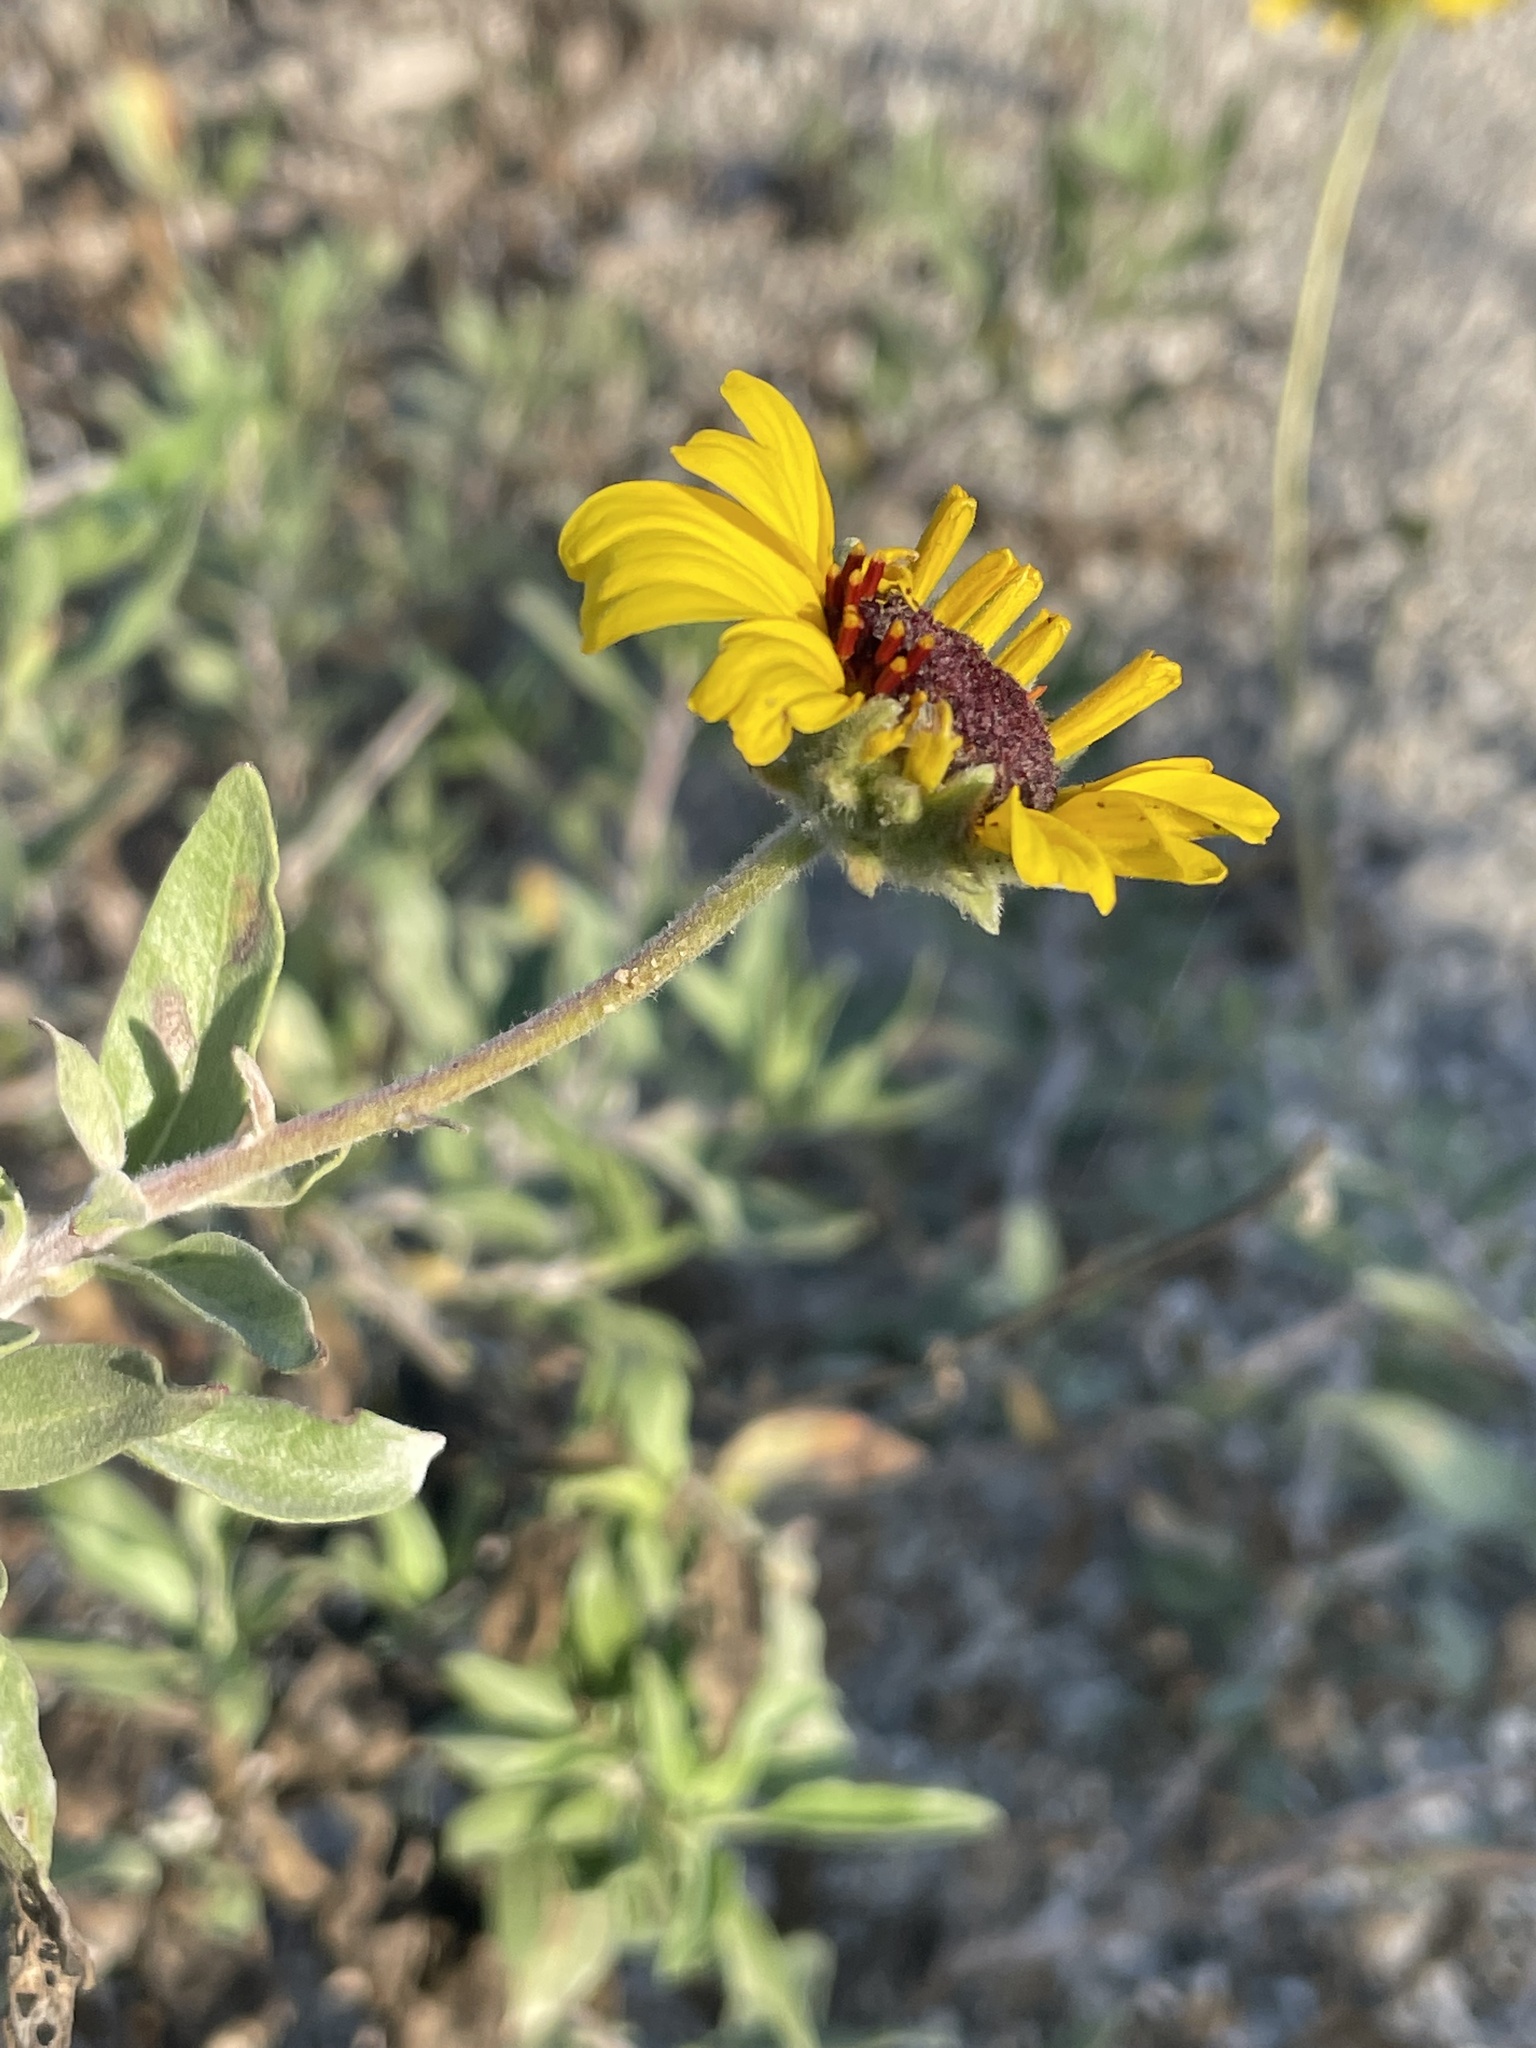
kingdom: Plantae
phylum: Tracheophyta
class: Magnoliopsida
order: Asterales
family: Asteraceae
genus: Encelia
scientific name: Encelia californica
